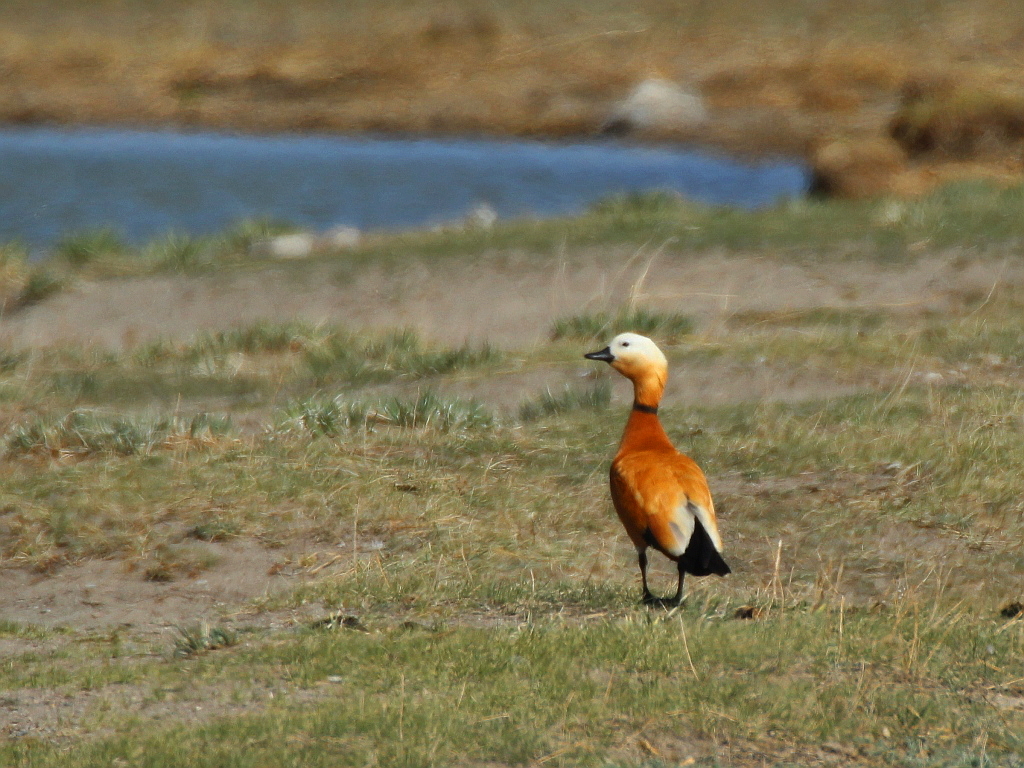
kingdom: Animalia
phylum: Chordata
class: Aves
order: Anseriformes
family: Anatidae
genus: Tadorna
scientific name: Tadorna ferruginea
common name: Ruddy shelduck
